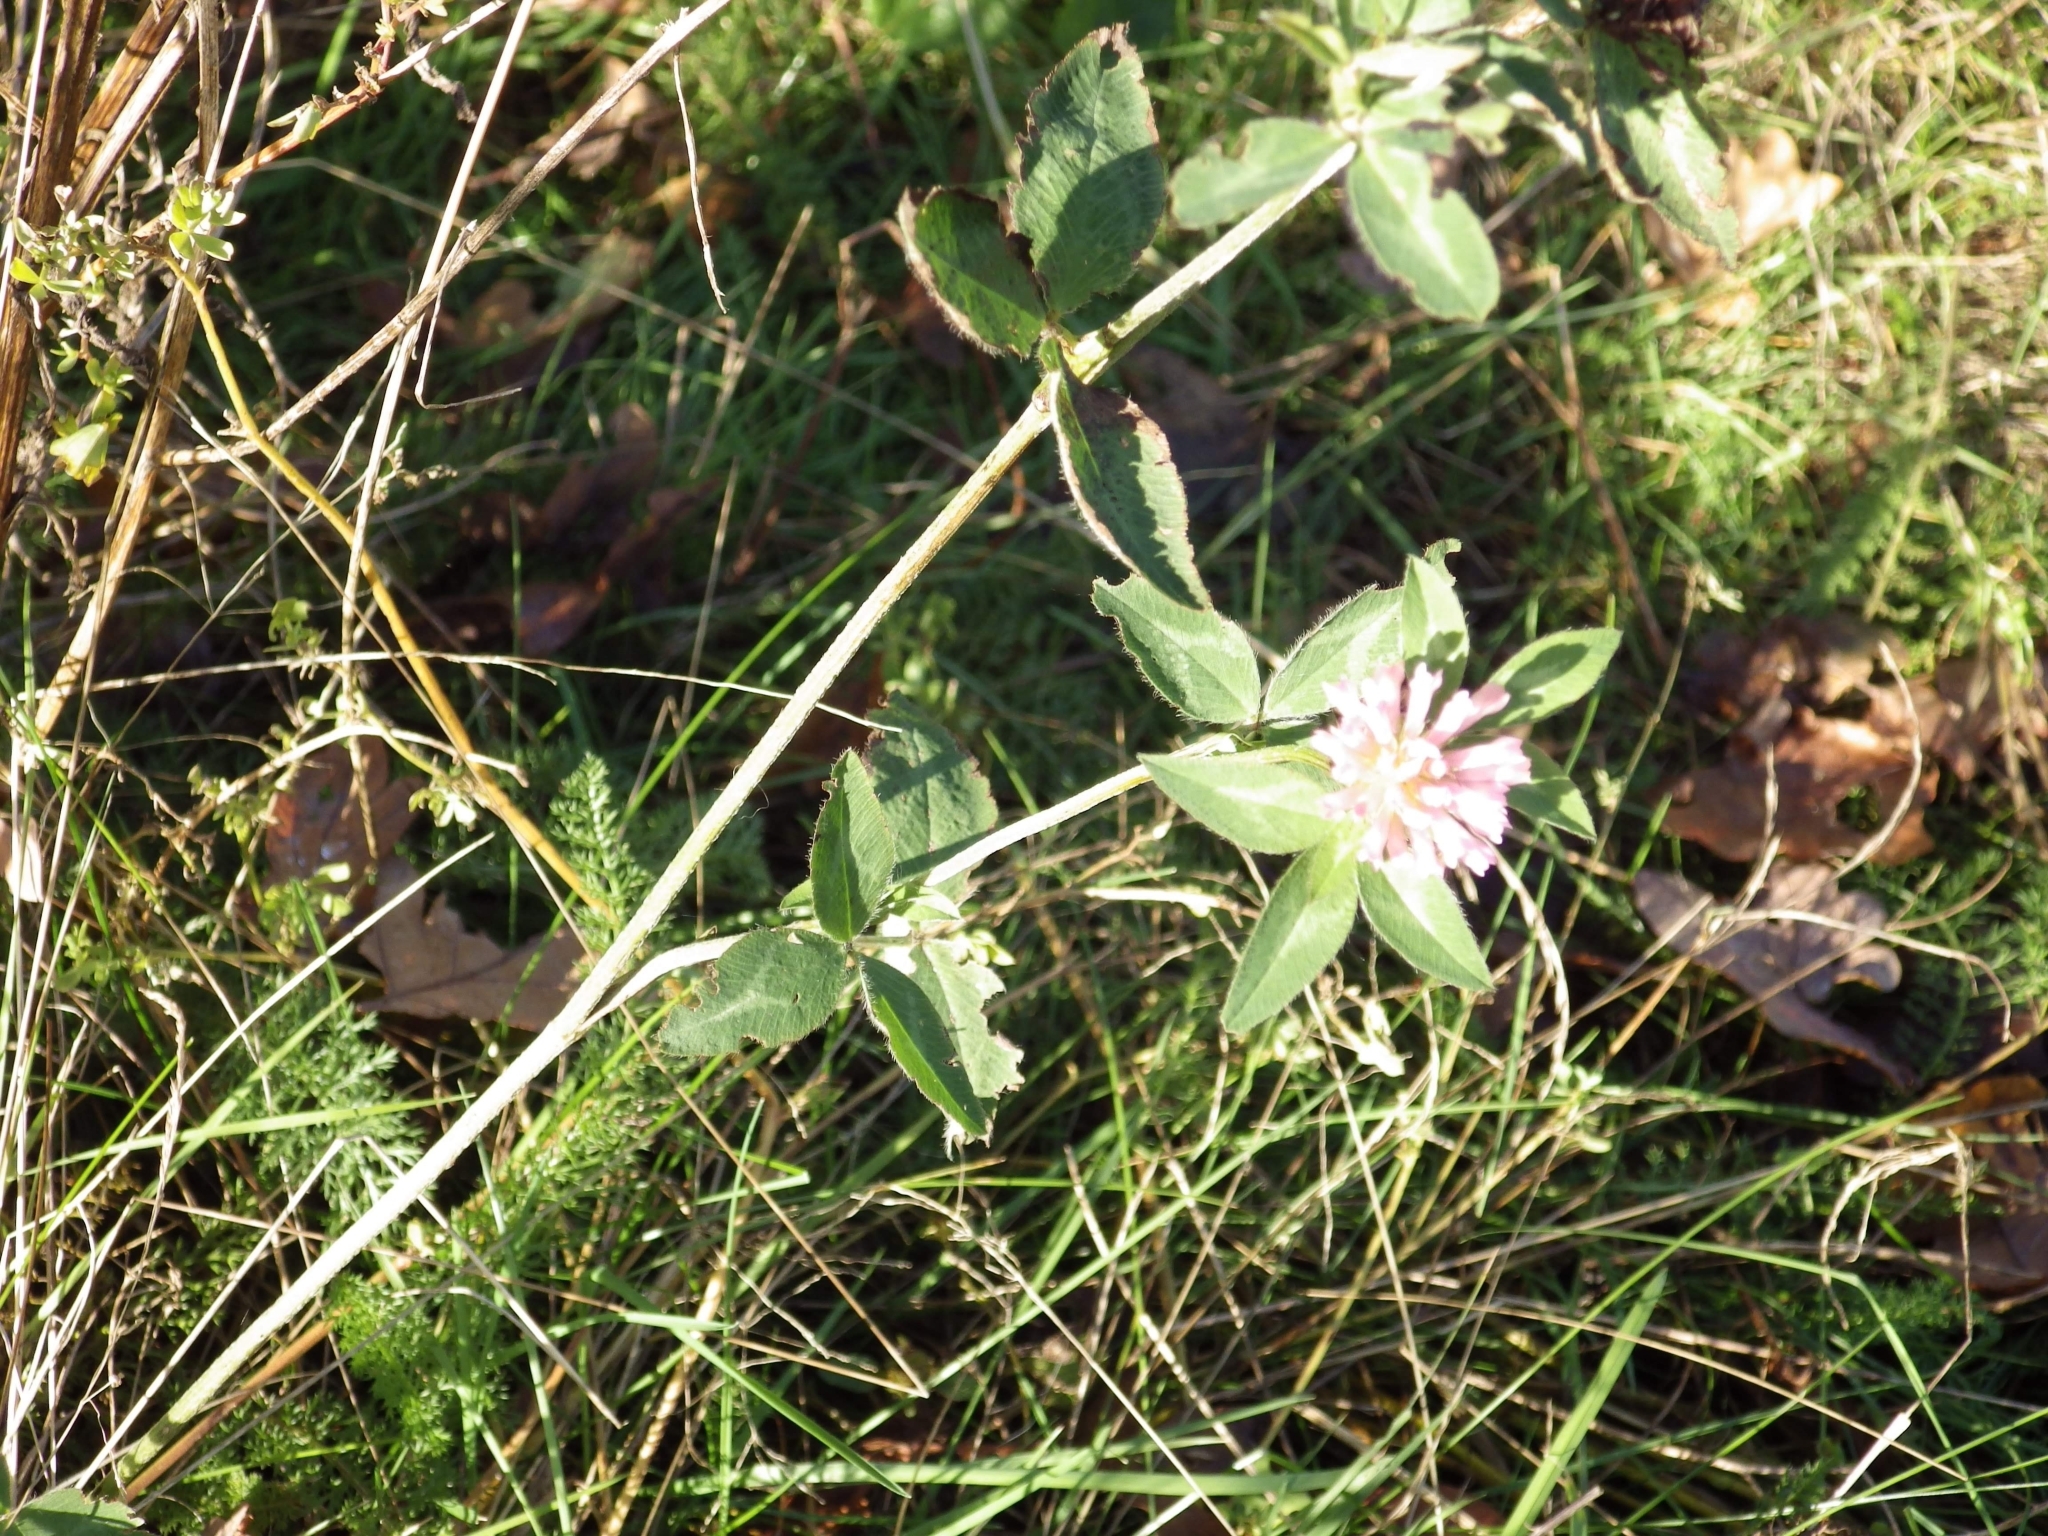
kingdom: Plantae
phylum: Tracheophyta
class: Magnoliopsida
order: Fabales
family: Fabaceae
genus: Trifolium
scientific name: Trifolium pratense
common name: Red clover
